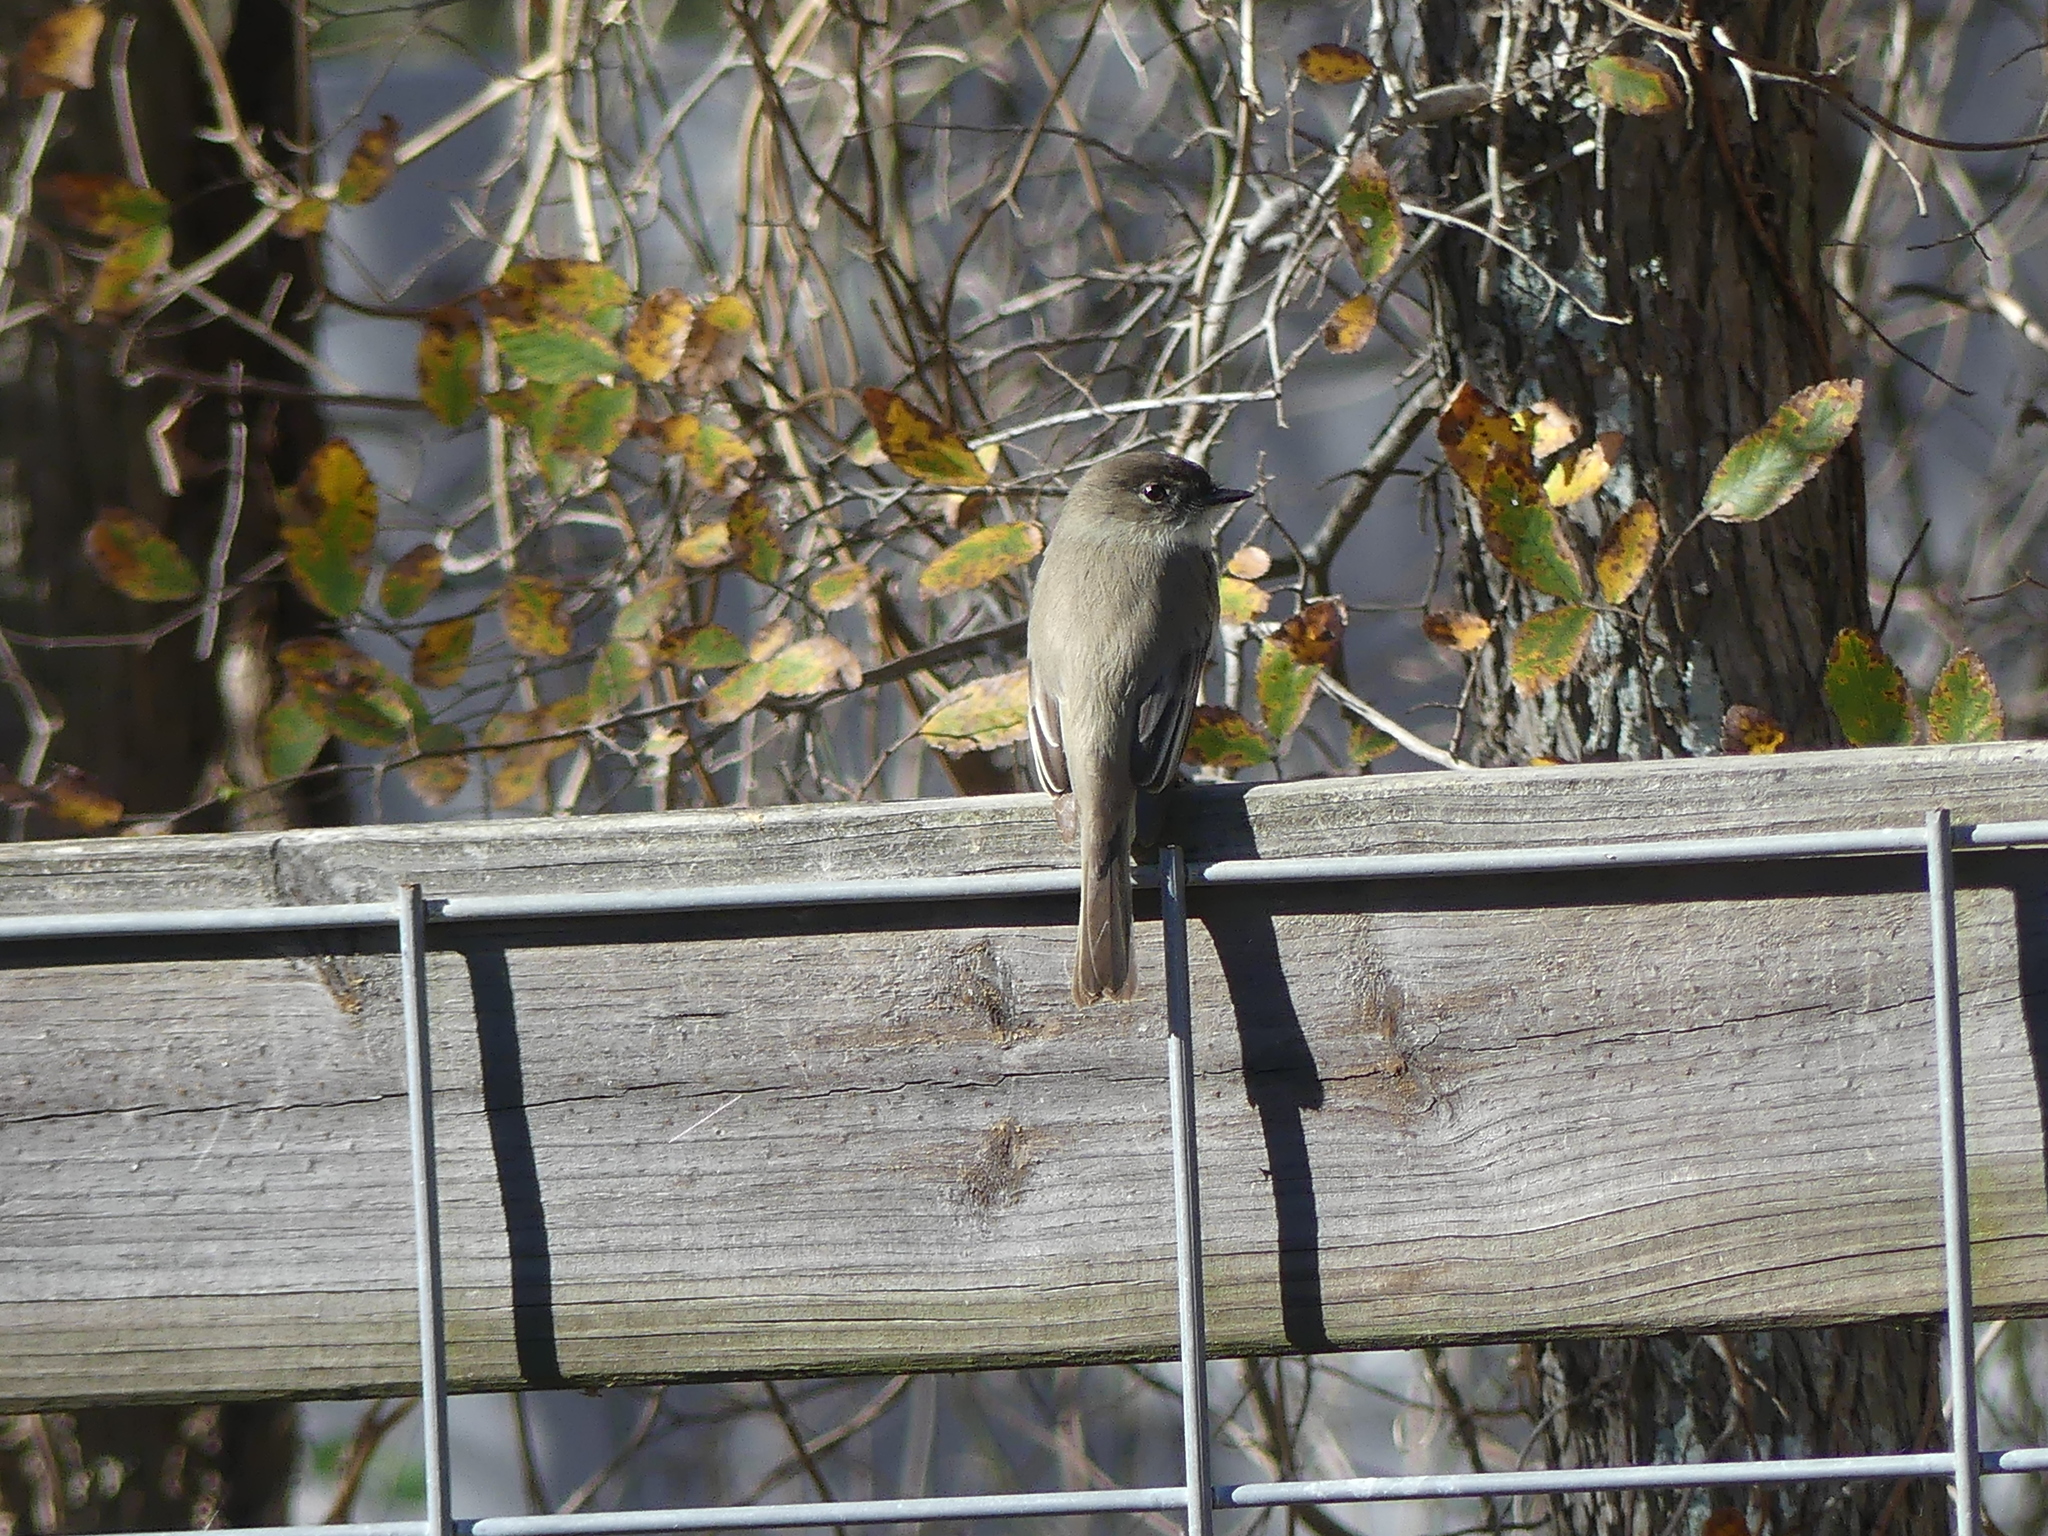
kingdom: Animalia
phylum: Chordata
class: Aves
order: Passeriformes
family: Tyrannidae
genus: Sayornis
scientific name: Sayornis phoebe
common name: Eastern phoebe
